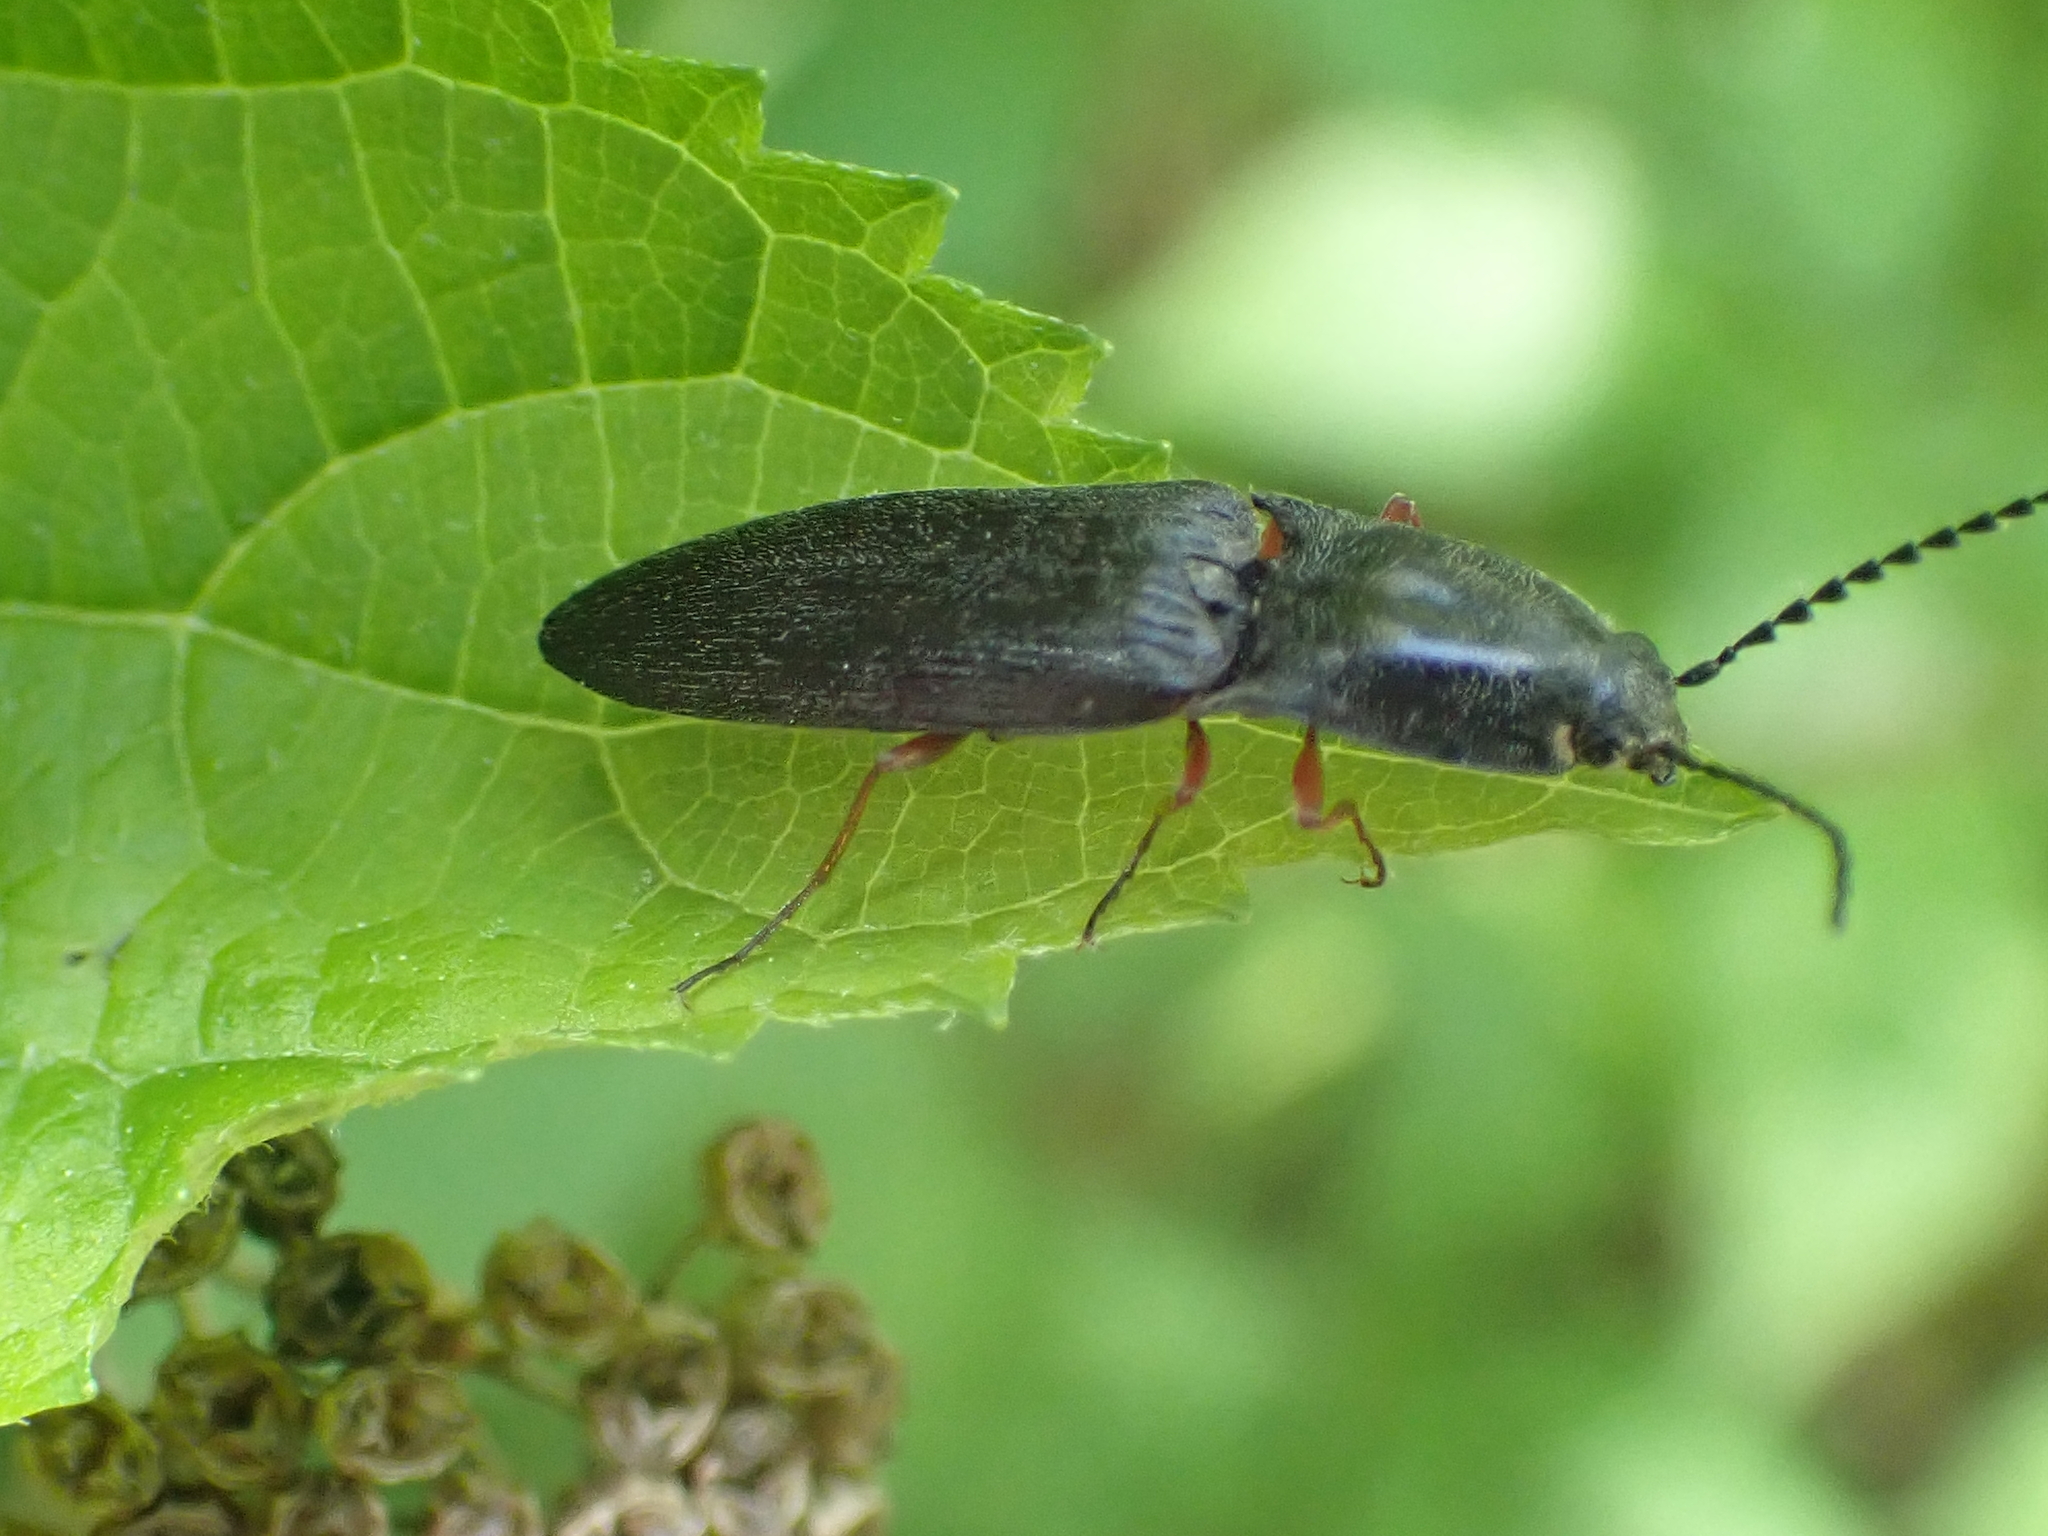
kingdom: Animalia
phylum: Arthropoda
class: Insecta
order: Coleoptera
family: Elateridae
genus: Paractenicera
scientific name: Paractenicera fulvipes
